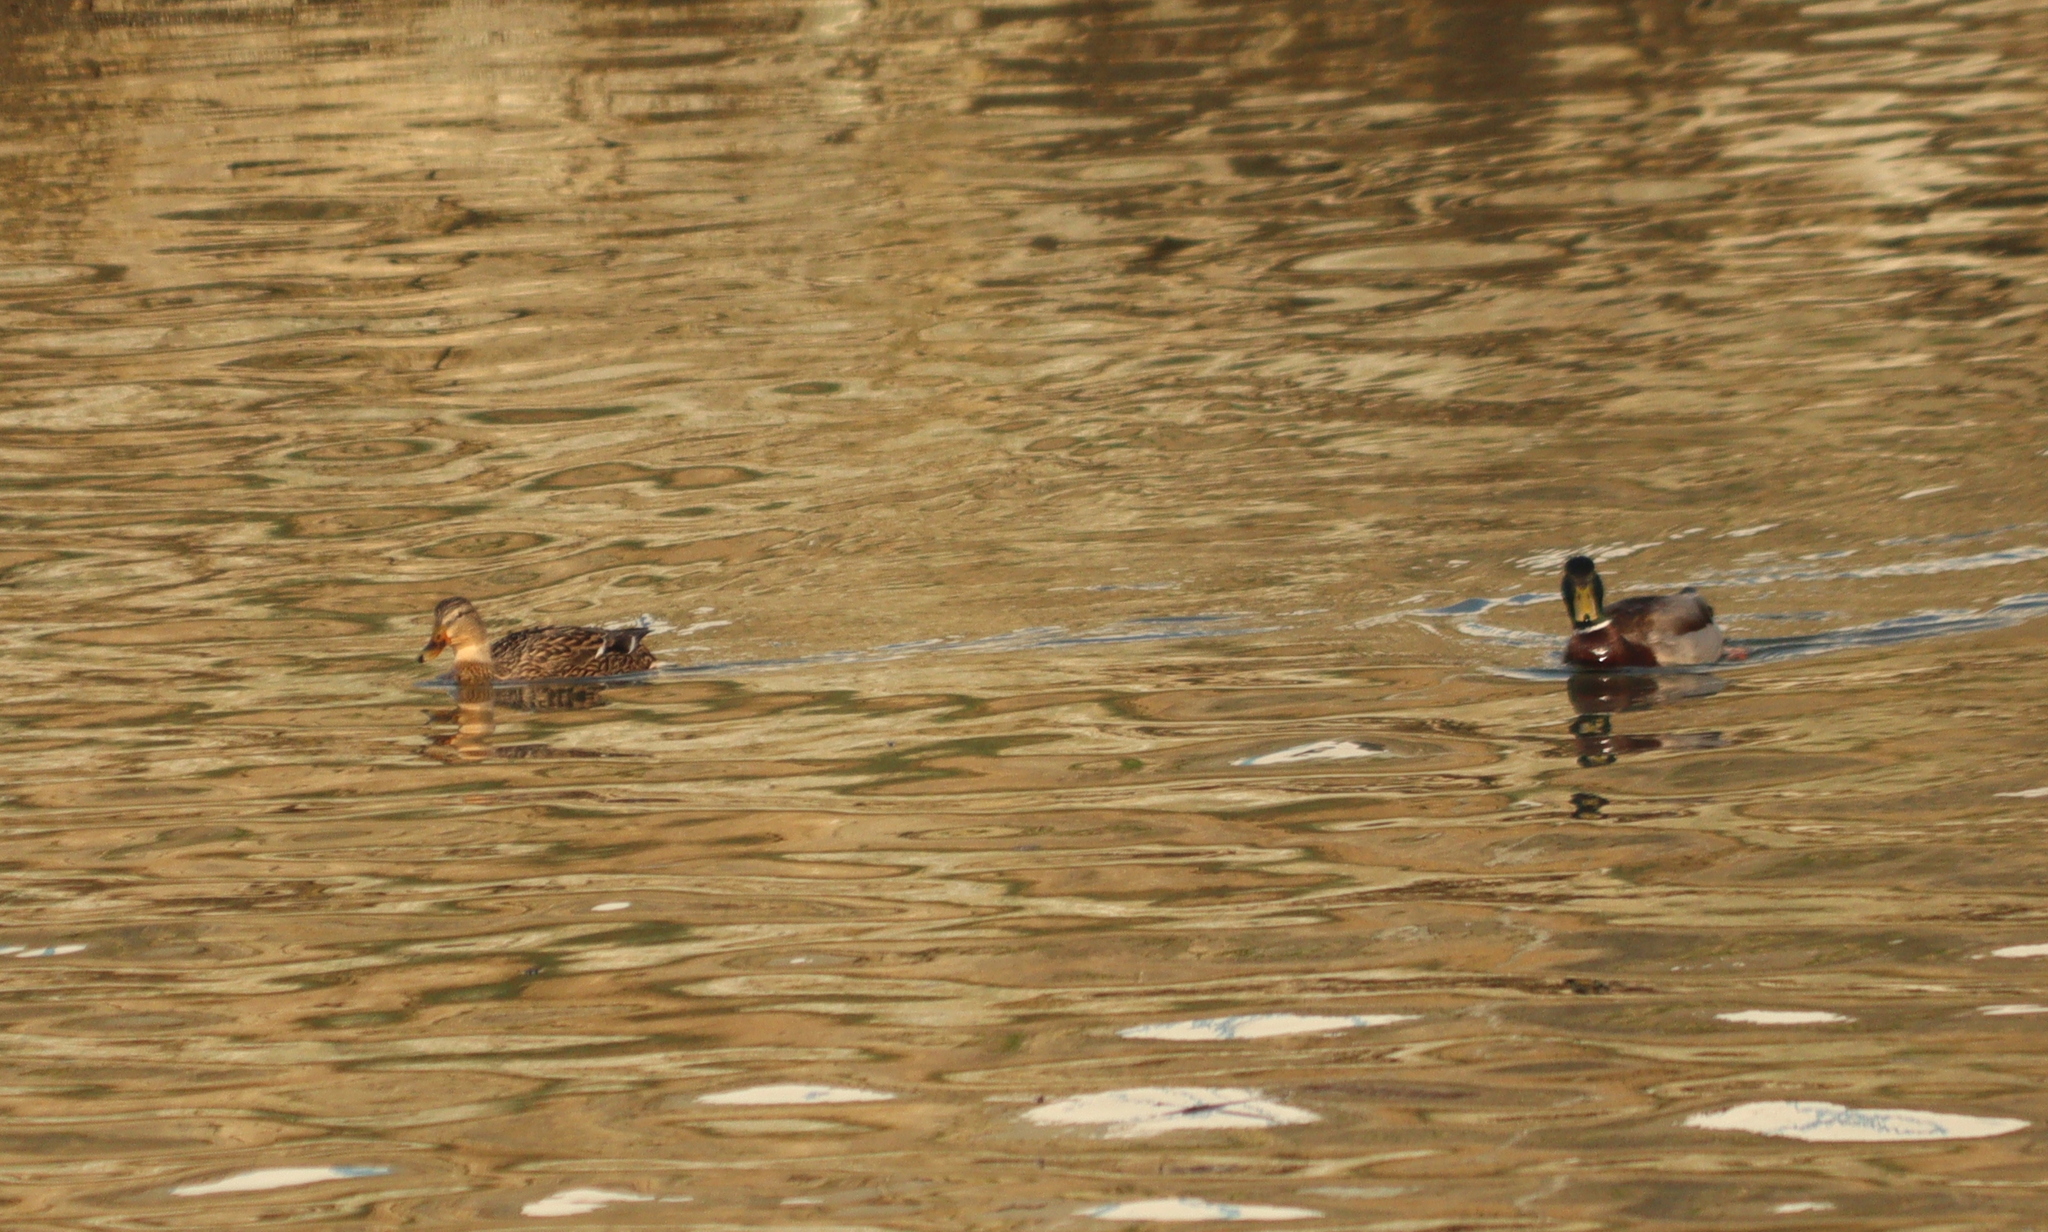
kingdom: Animalia
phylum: Chordata
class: Aves
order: Anseriformes
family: Anatidae
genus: Anas
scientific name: Anas platyrhynchos
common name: Mallard
